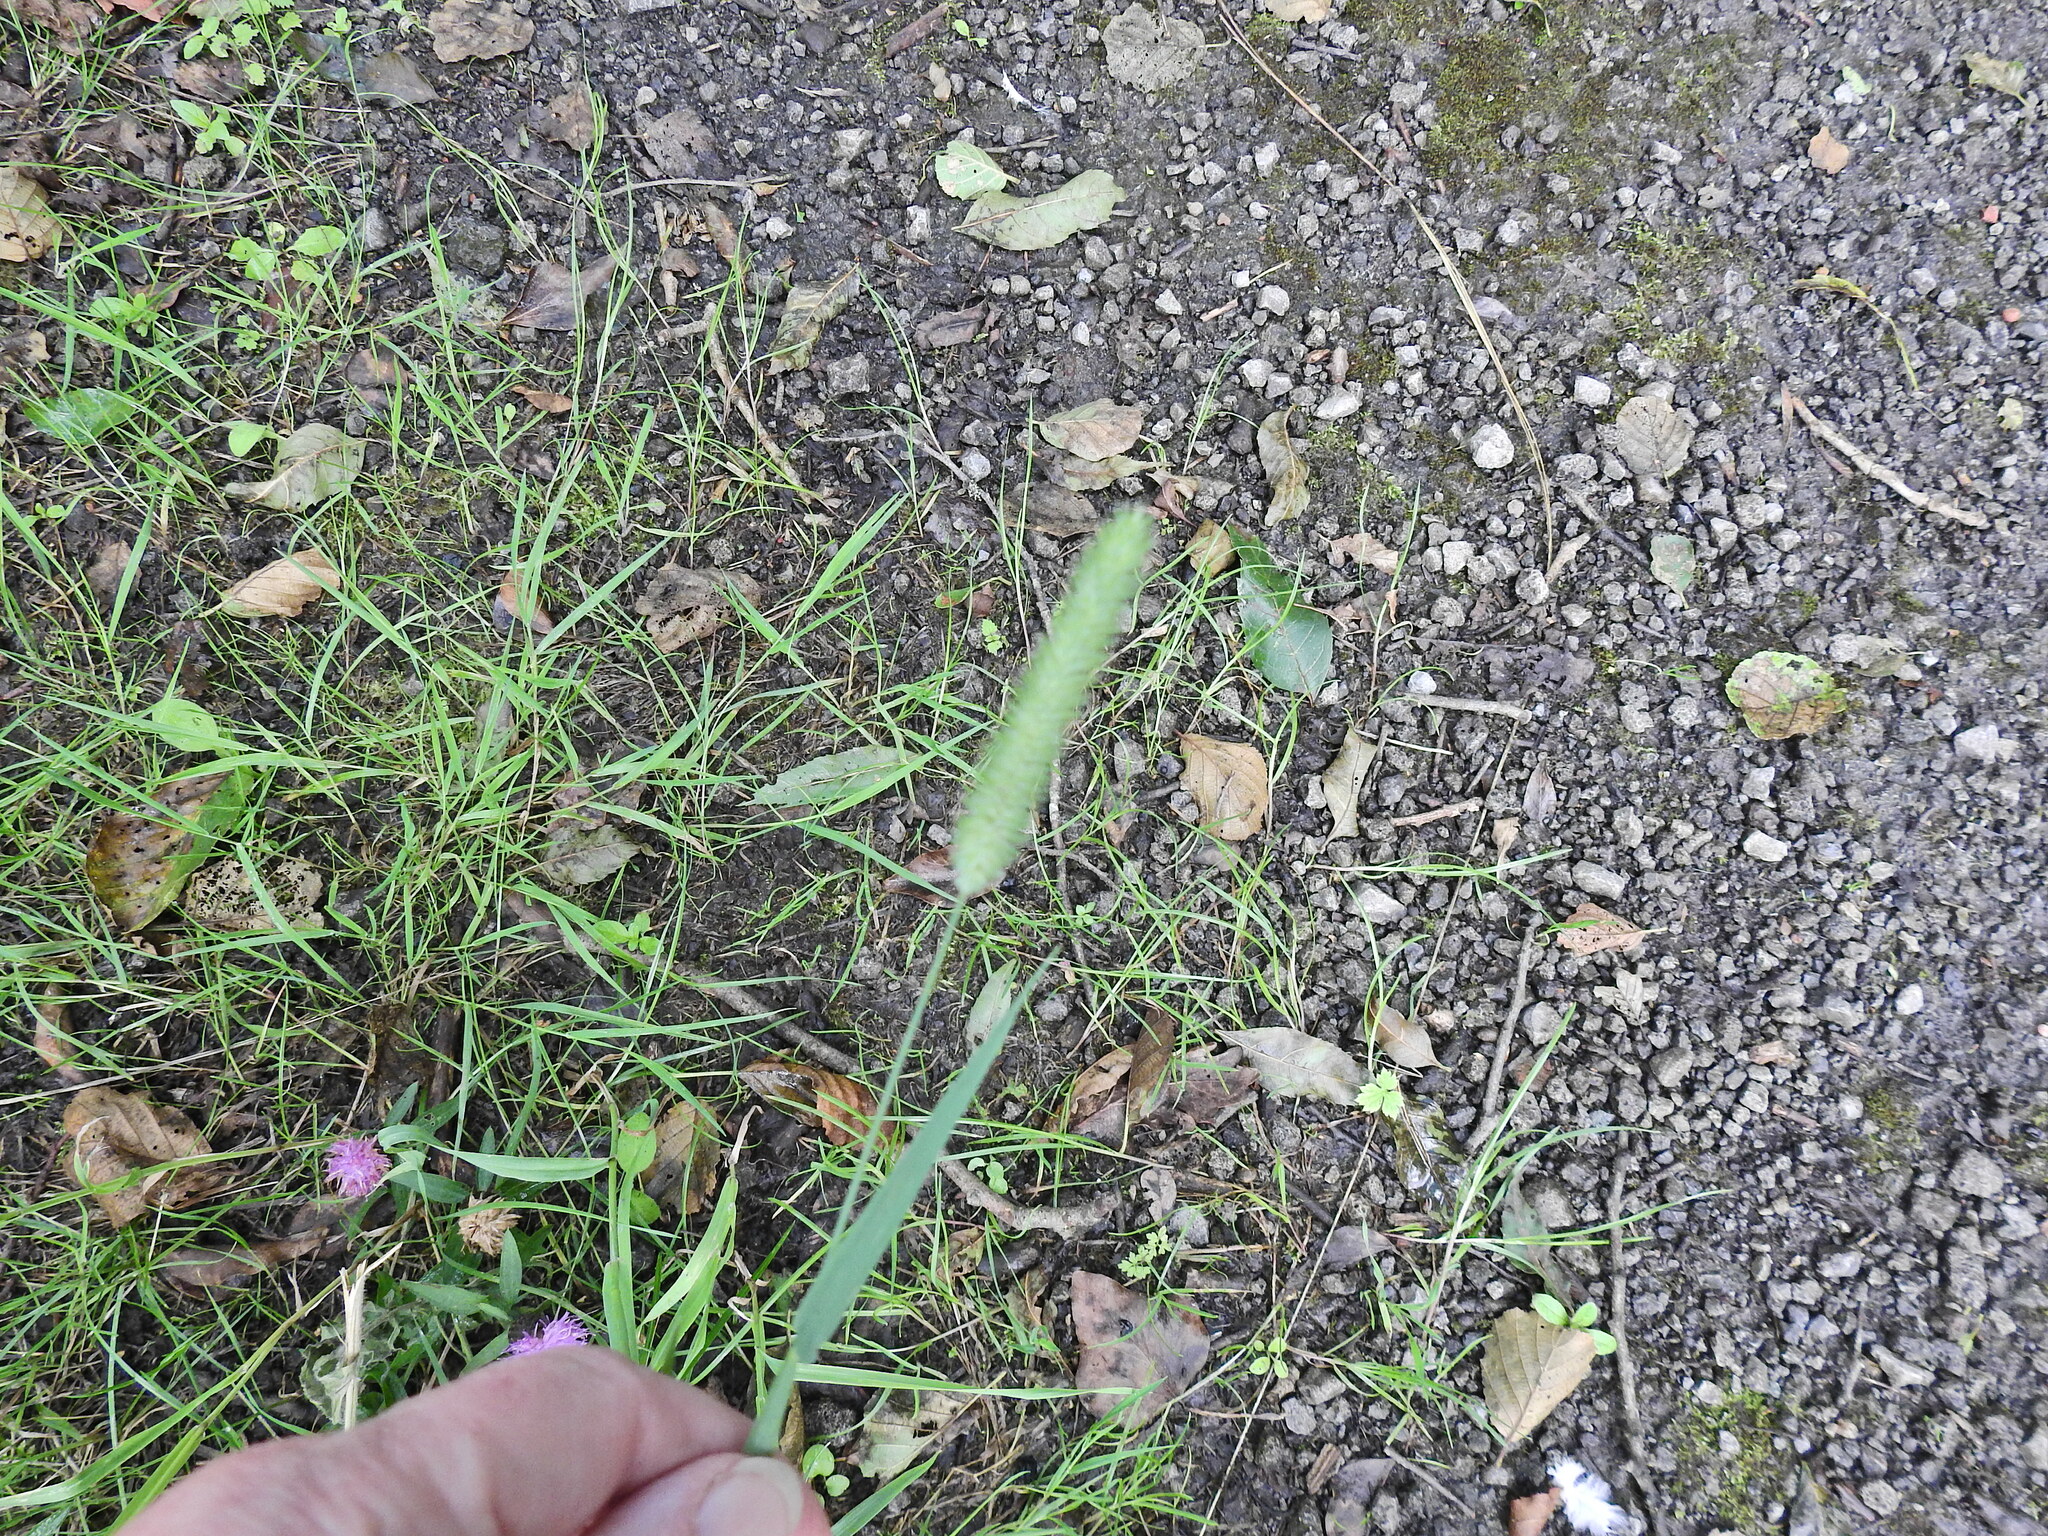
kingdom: Plantae
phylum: Tracheophyta
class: Liliopsida
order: Poales
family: Poaceae
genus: Phleum
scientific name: Phleum pratense
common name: Timothy grass
